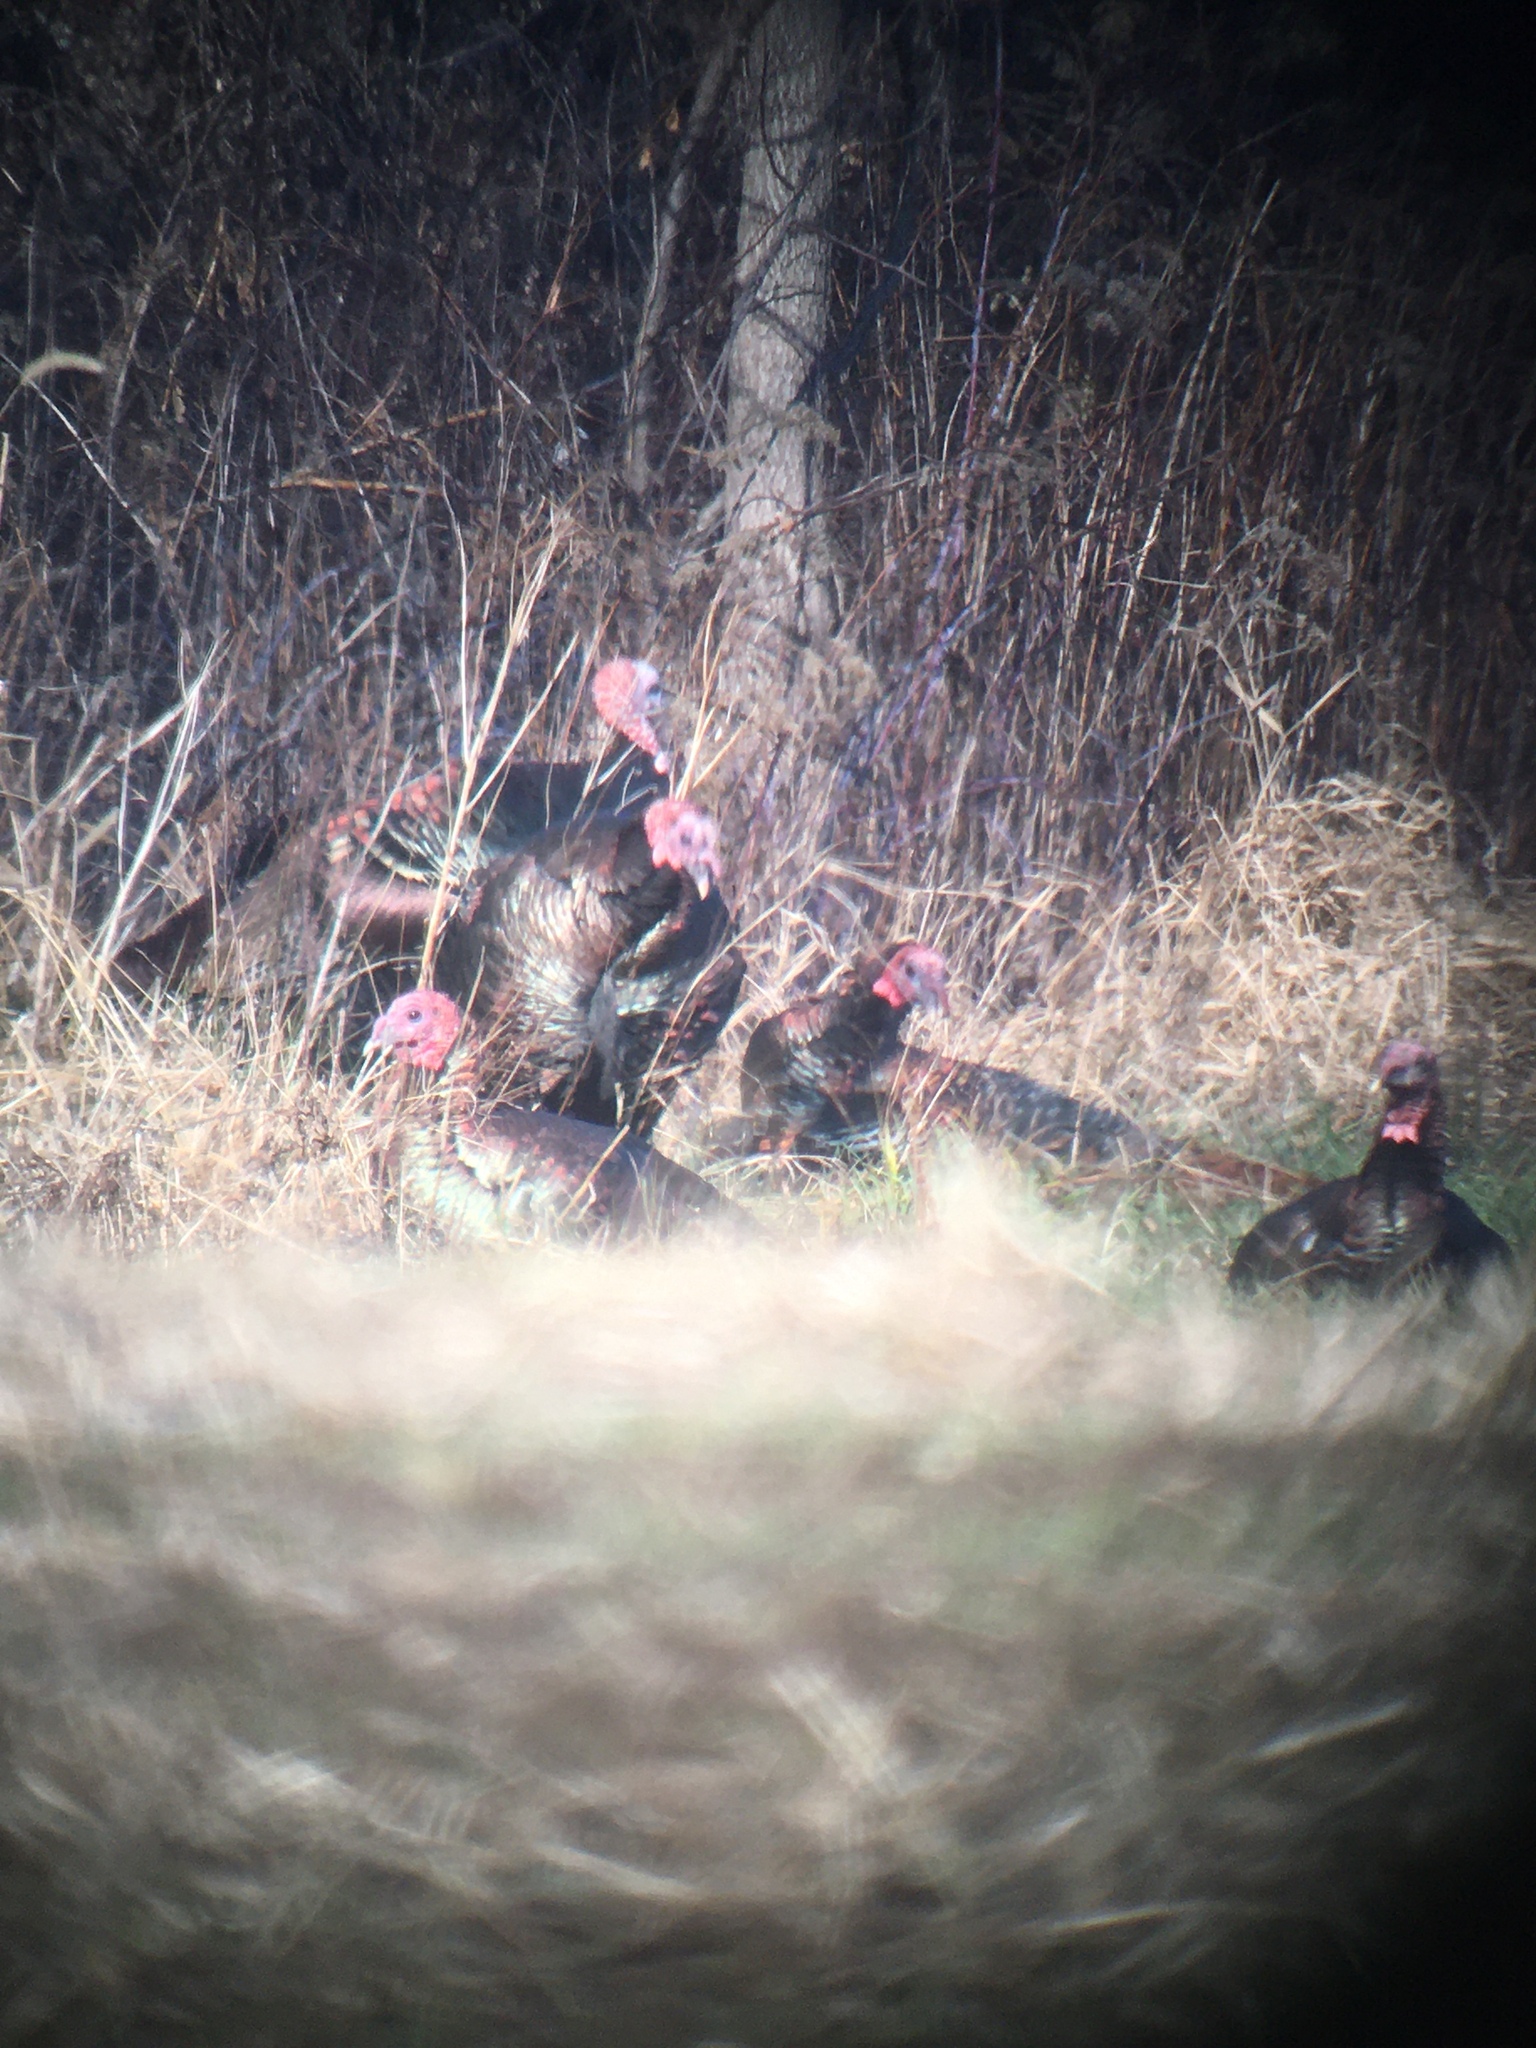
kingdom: Animalia
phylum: Chordata
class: Aves
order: Galliformes
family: Phasianidae
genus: Meleagris
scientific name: Meleagris gallopavo
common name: Wild turkey
